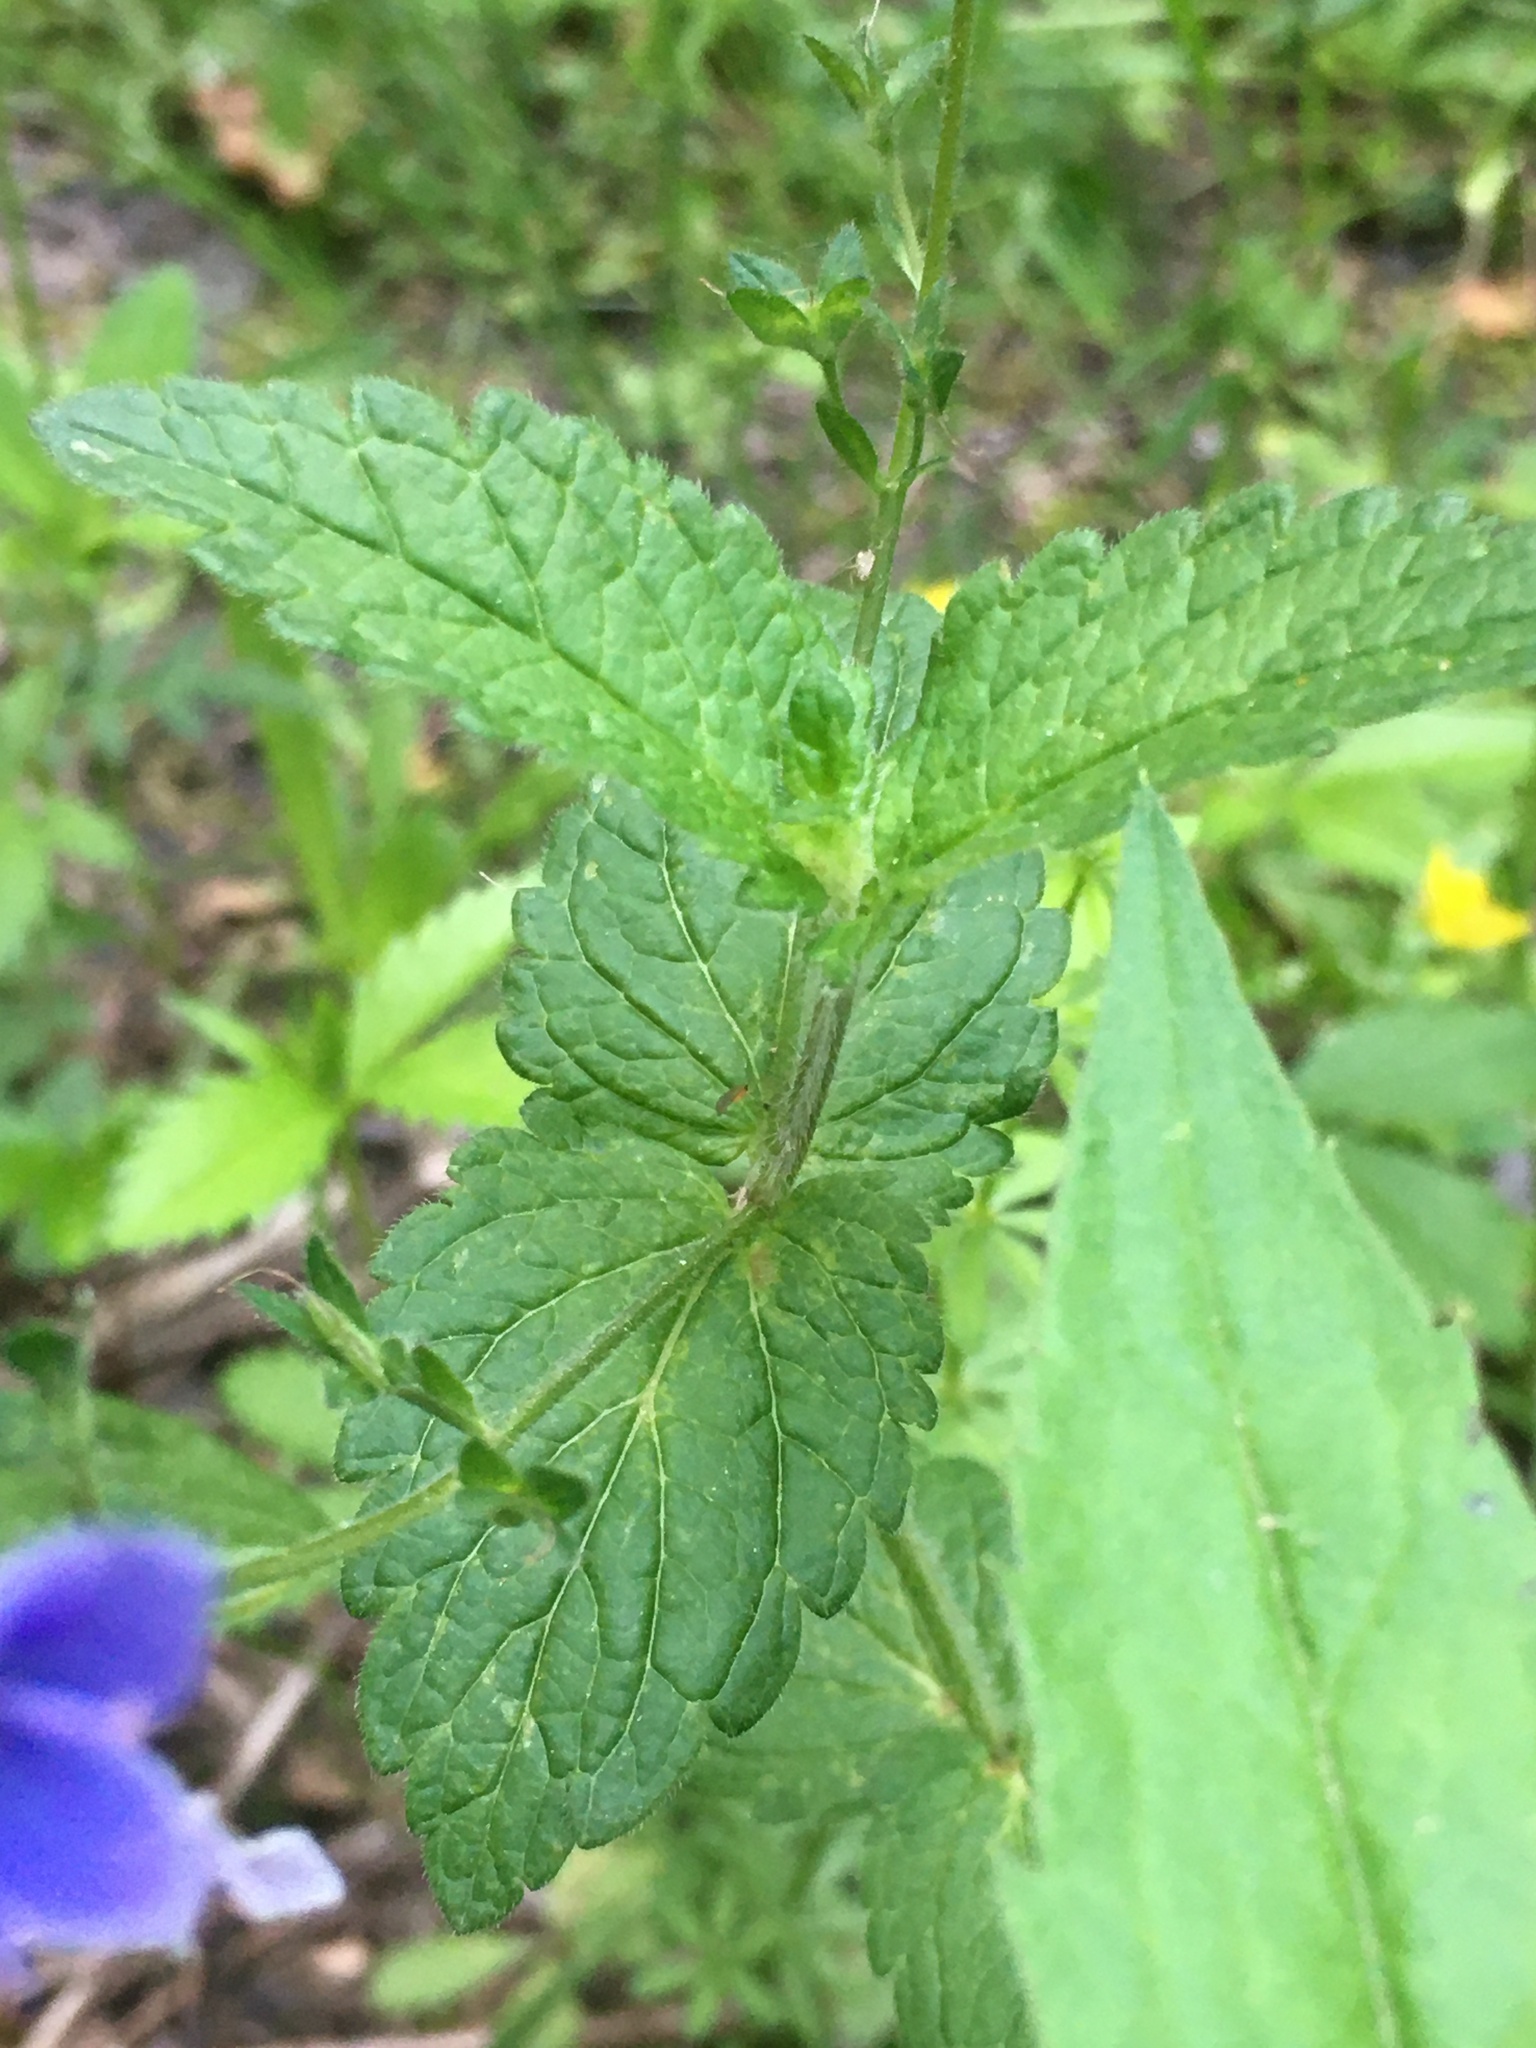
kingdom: Plantae
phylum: Tracheophyta
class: Magnoliopsida
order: Lamiales
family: Plantaginaceae
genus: Veronica
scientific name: Veronica chamaedrys
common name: Germander speedwell
